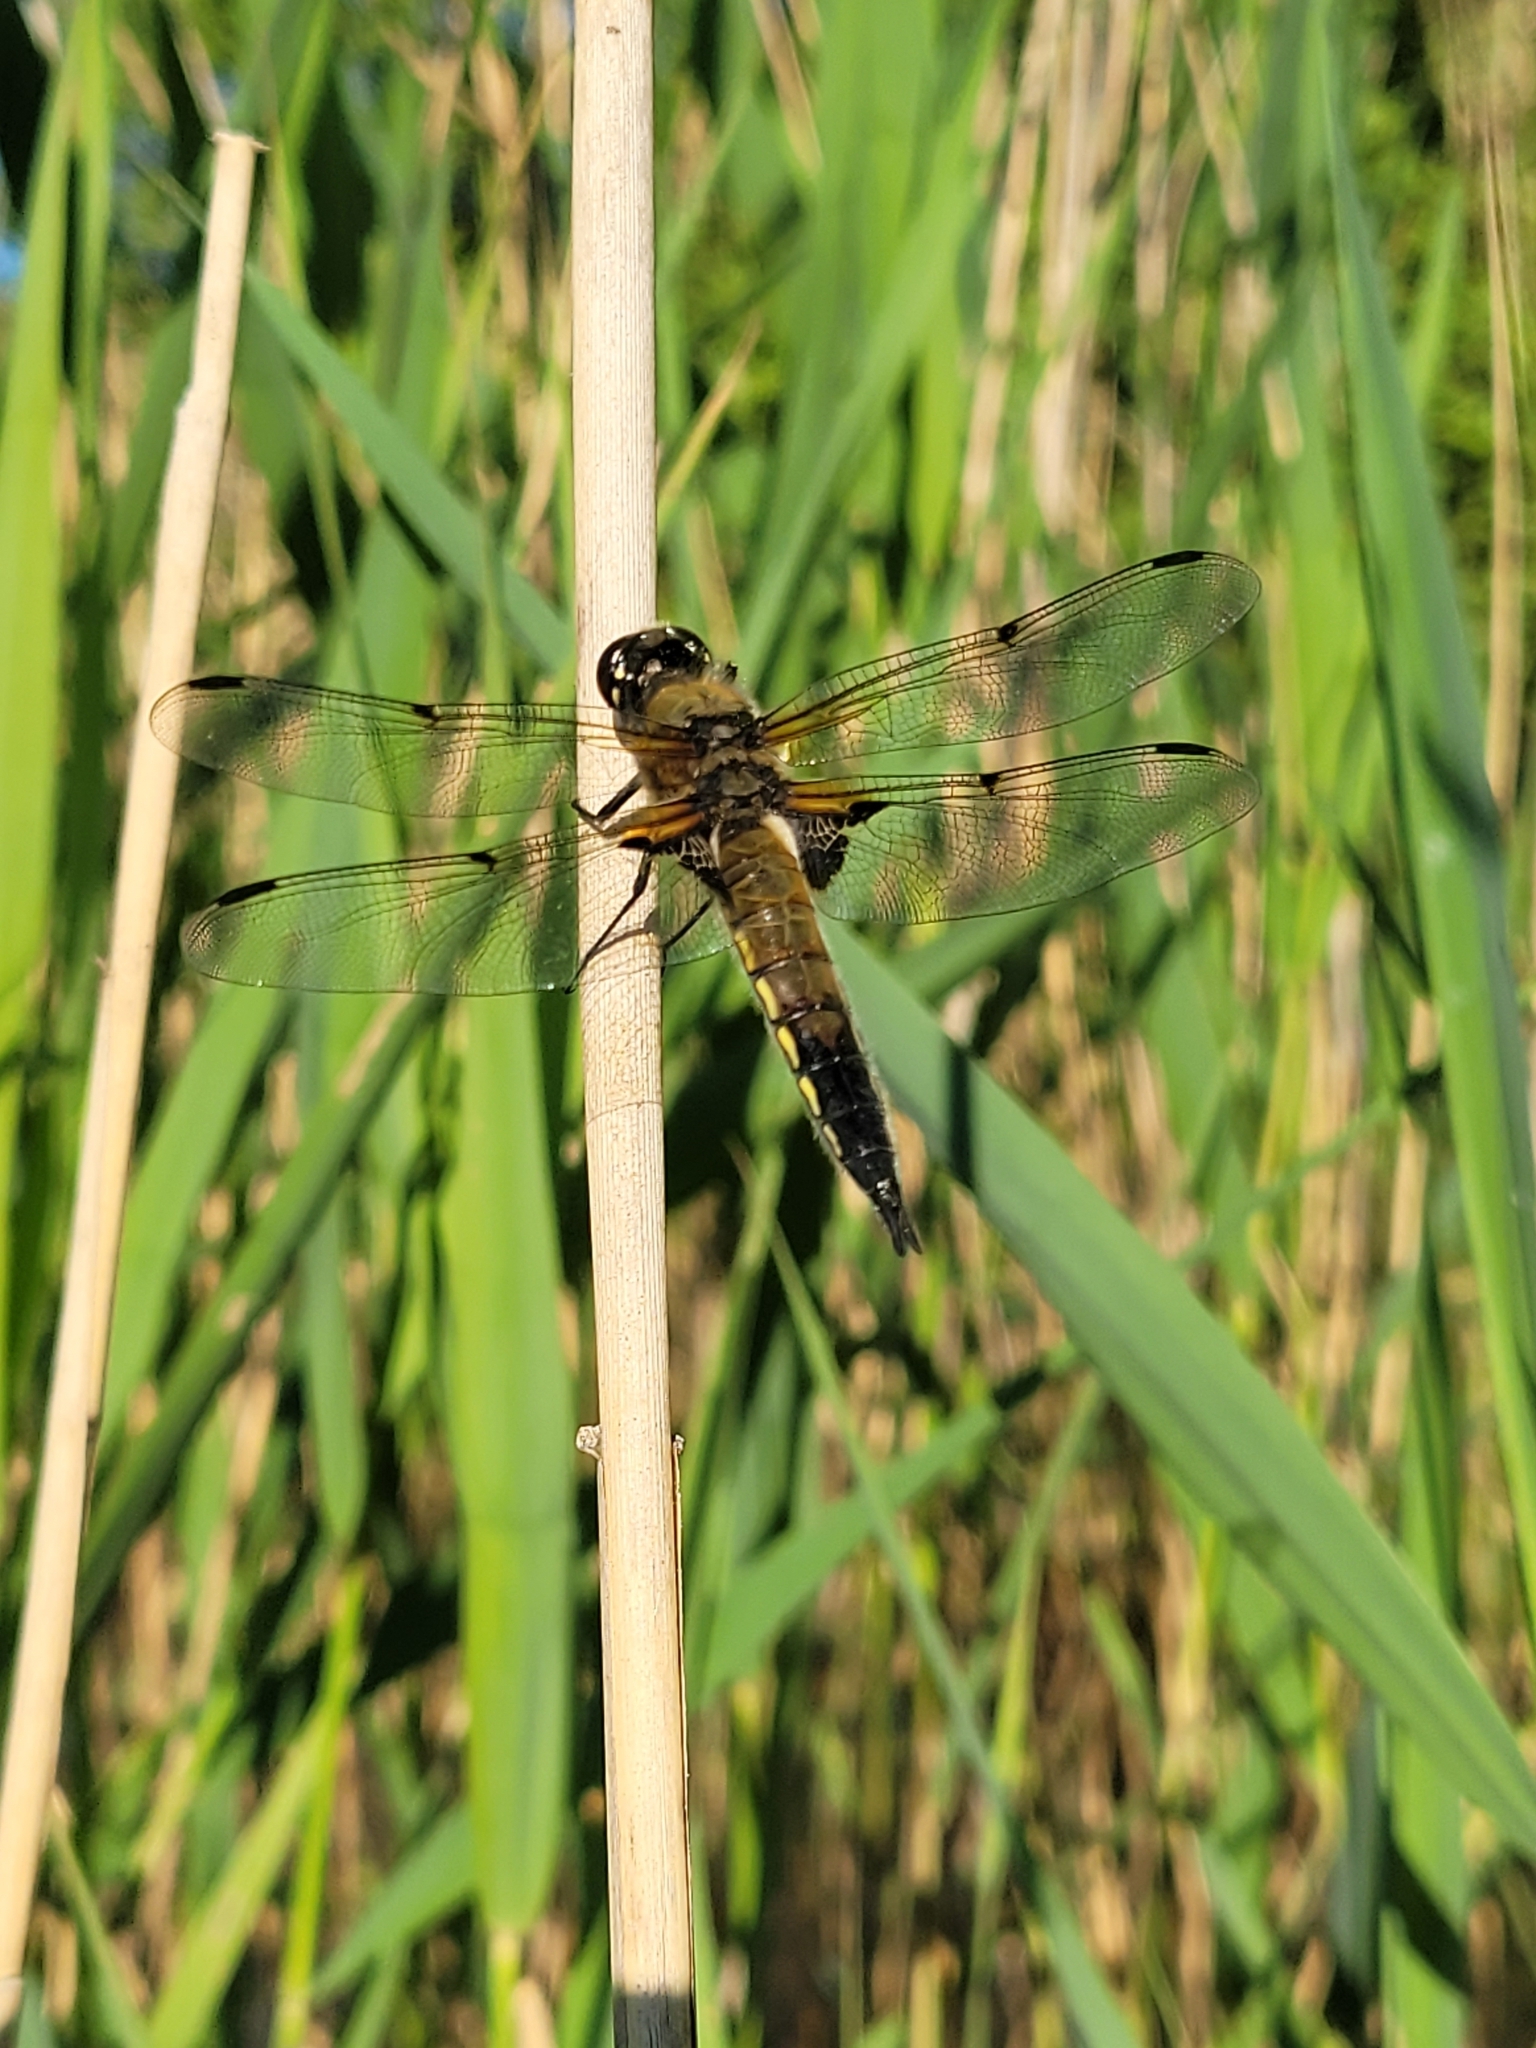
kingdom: Animalia
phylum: Arthropoda
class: Insecta
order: Odonata
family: Libellulidae
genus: Libellula
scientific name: Libellula quadrimaculata
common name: Four-spotted chaser
